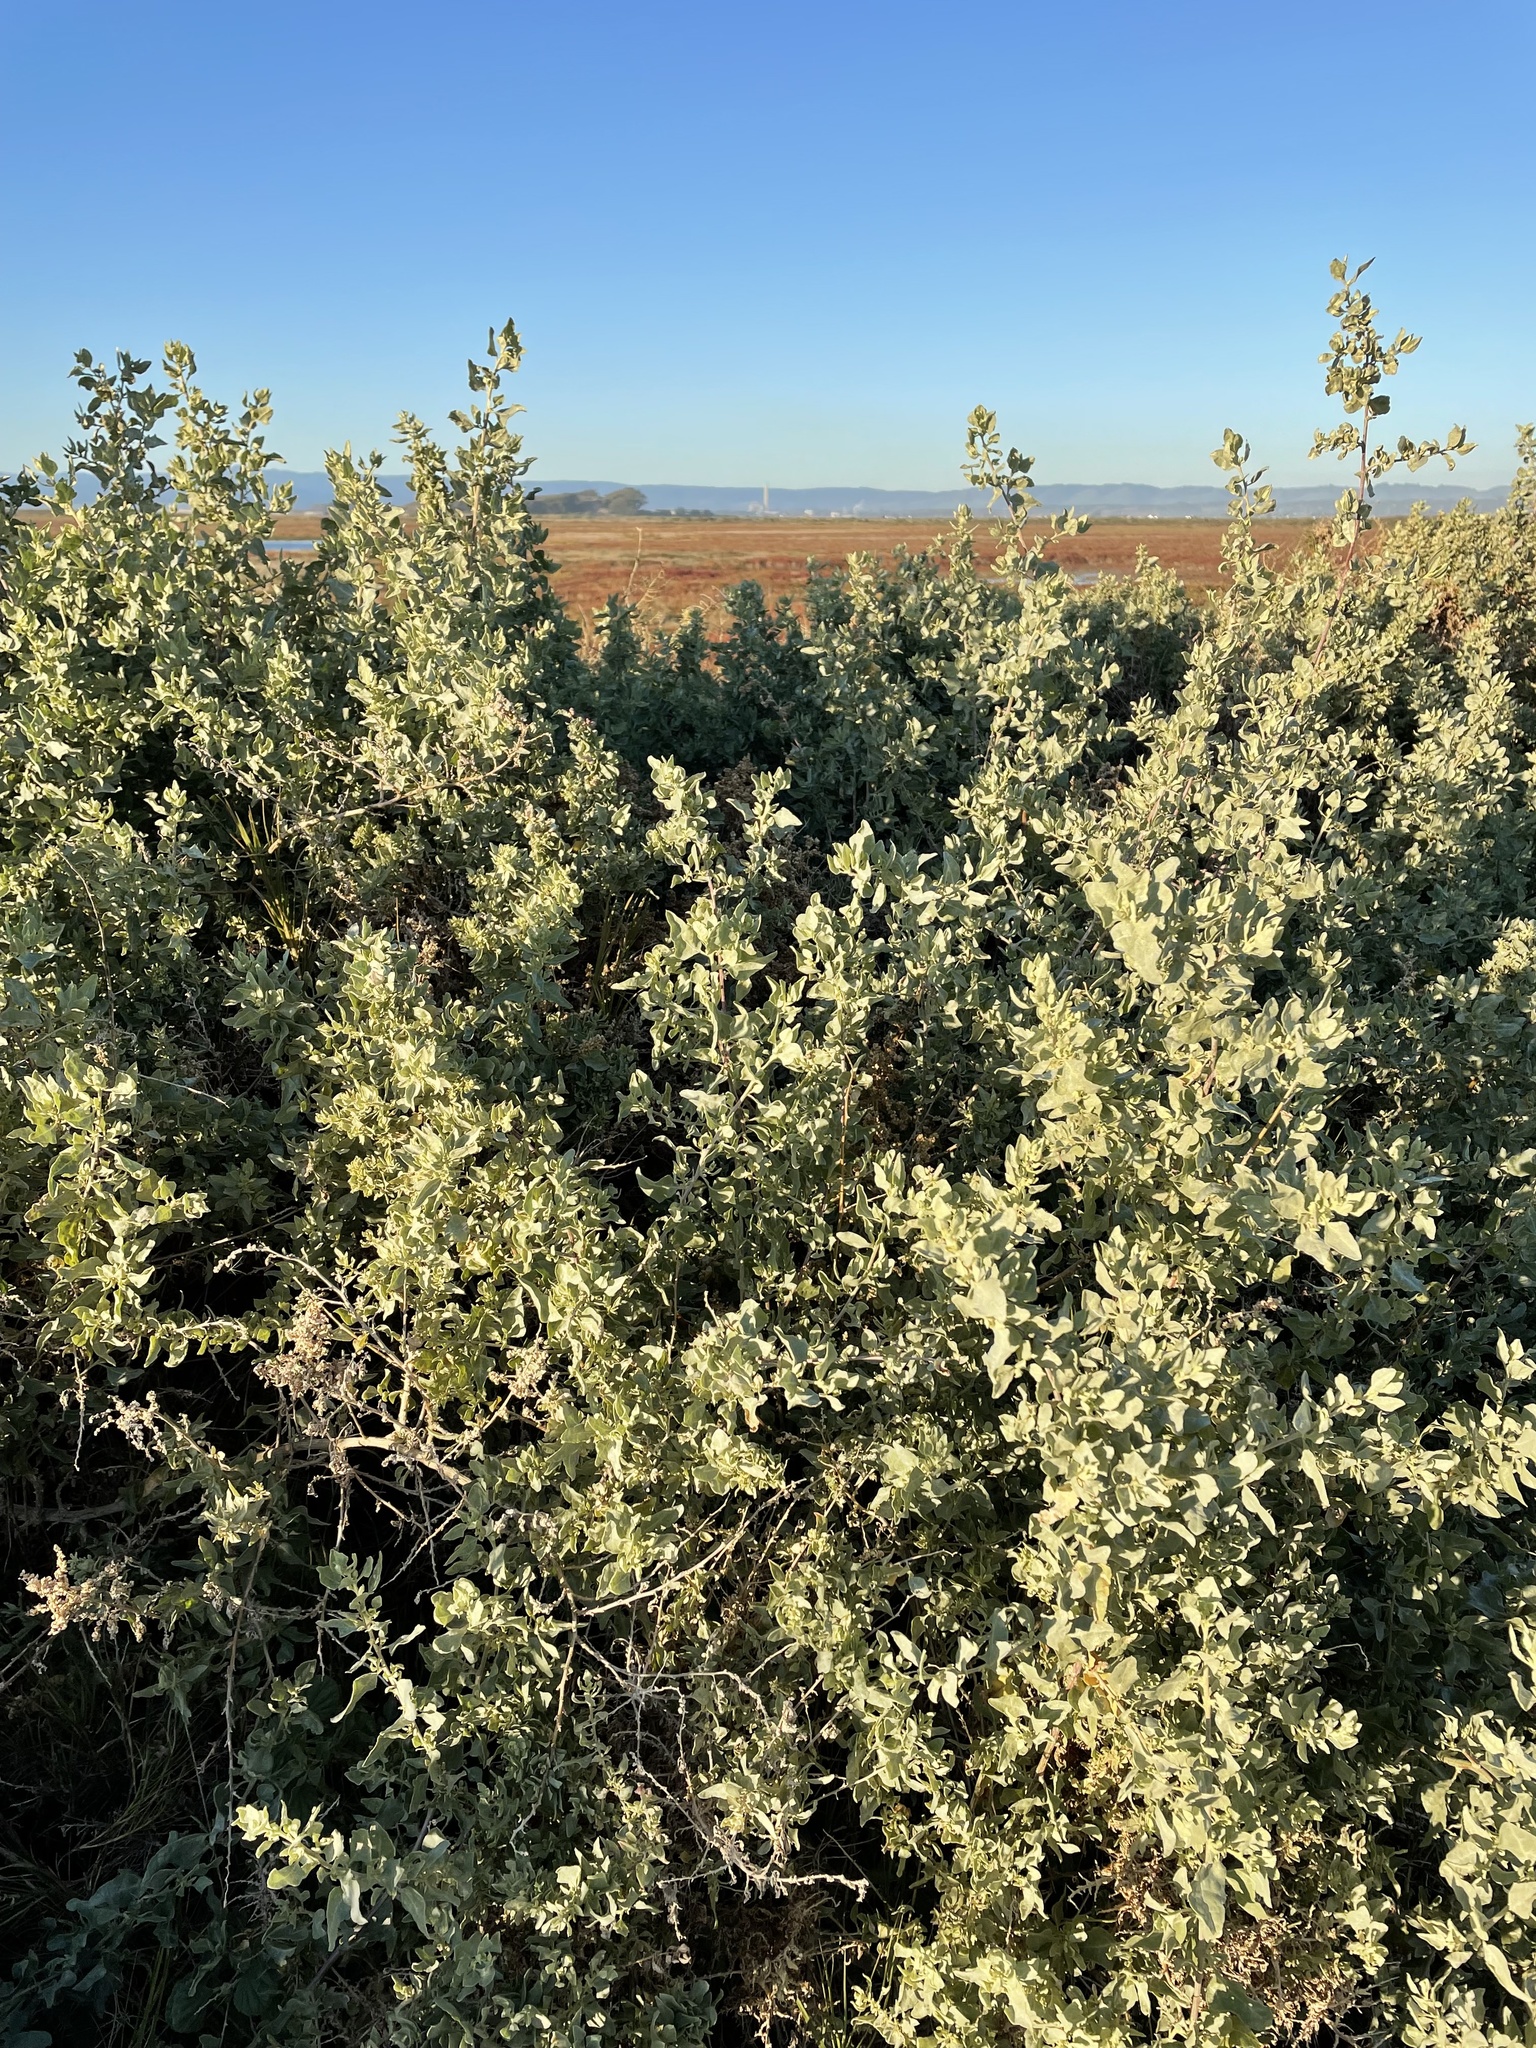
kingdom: Plantae
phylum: Tracheophyta
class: Magnoliopsida
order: Caryophyllales
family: Amaranthaceae
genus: Atriplex
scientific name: Atriplex lentiformis
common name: Big saltbush
